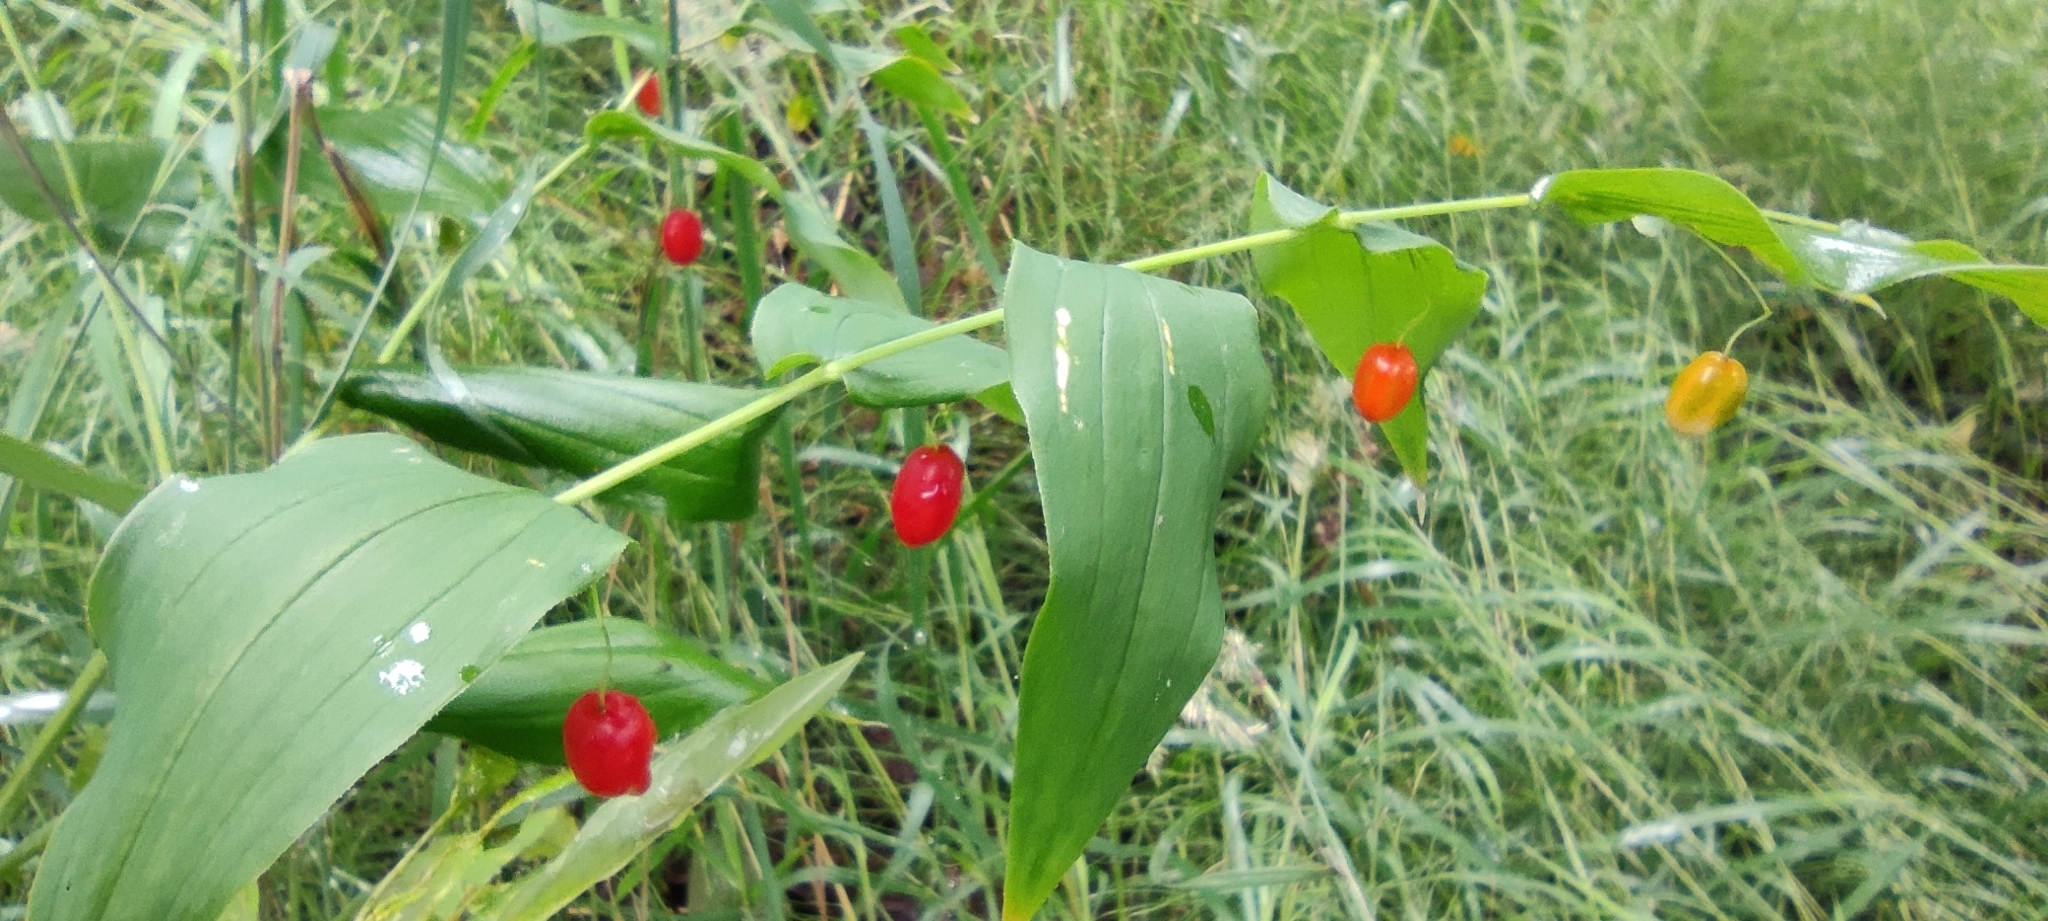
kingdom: Plantae
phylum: Tracheophyta
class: Liliopsida
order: Liliales
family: Liliaceae
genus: Streptopus
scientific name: Streptopus amplexifolius
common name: Clasp twisted stalk
